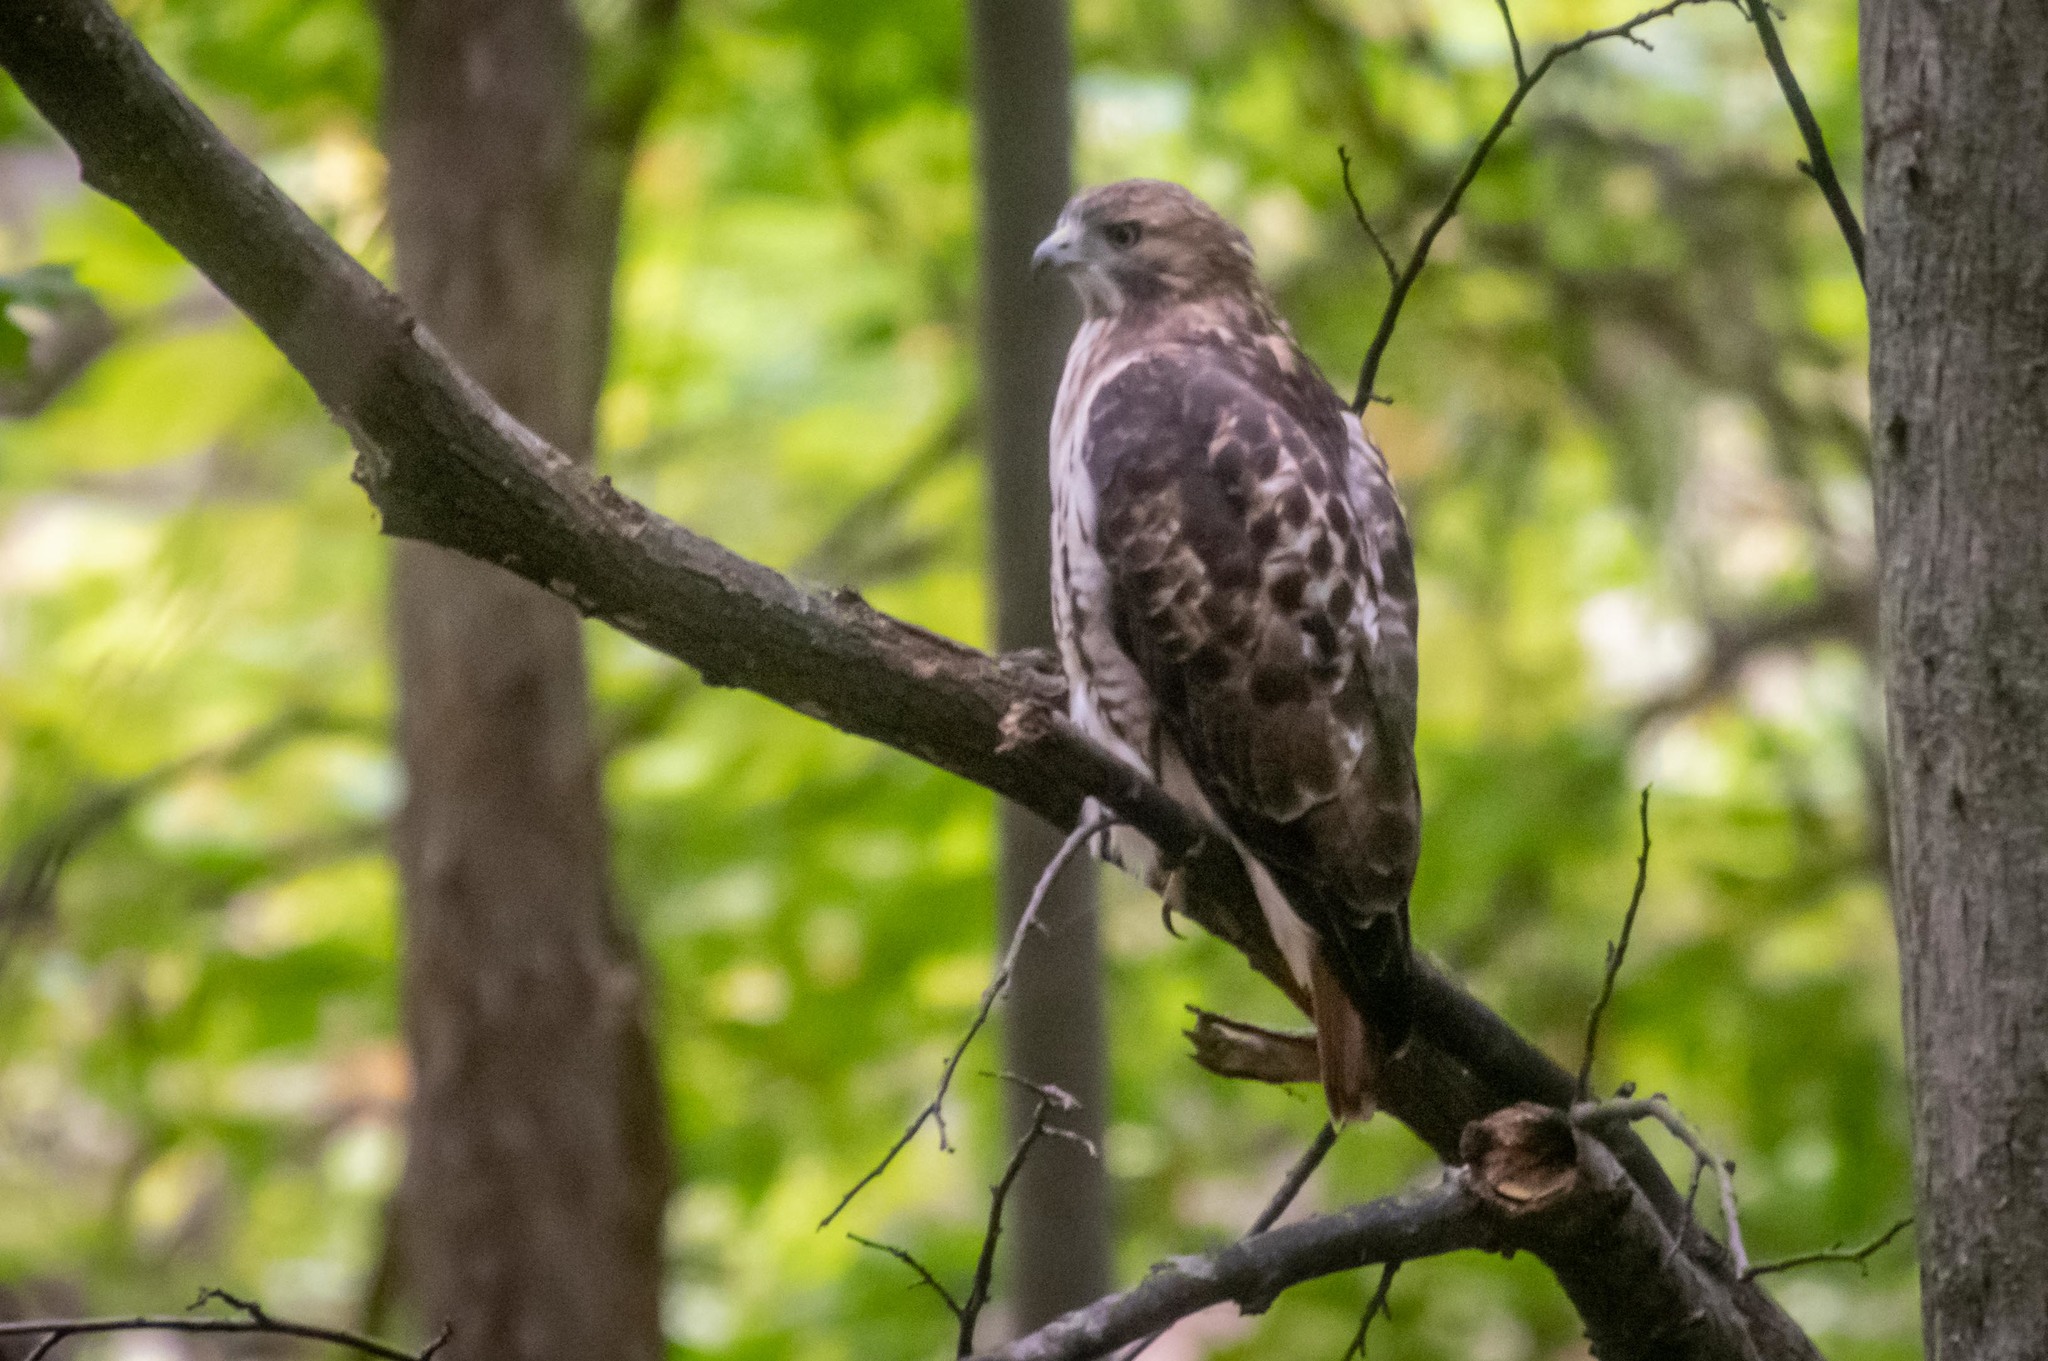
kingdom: Animalia
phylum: Chordata
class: Aves
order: Accipitriformes
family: Accipitridae
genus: Buteo
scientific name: Buteo jamaicensis
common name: Red-tailed hawk
